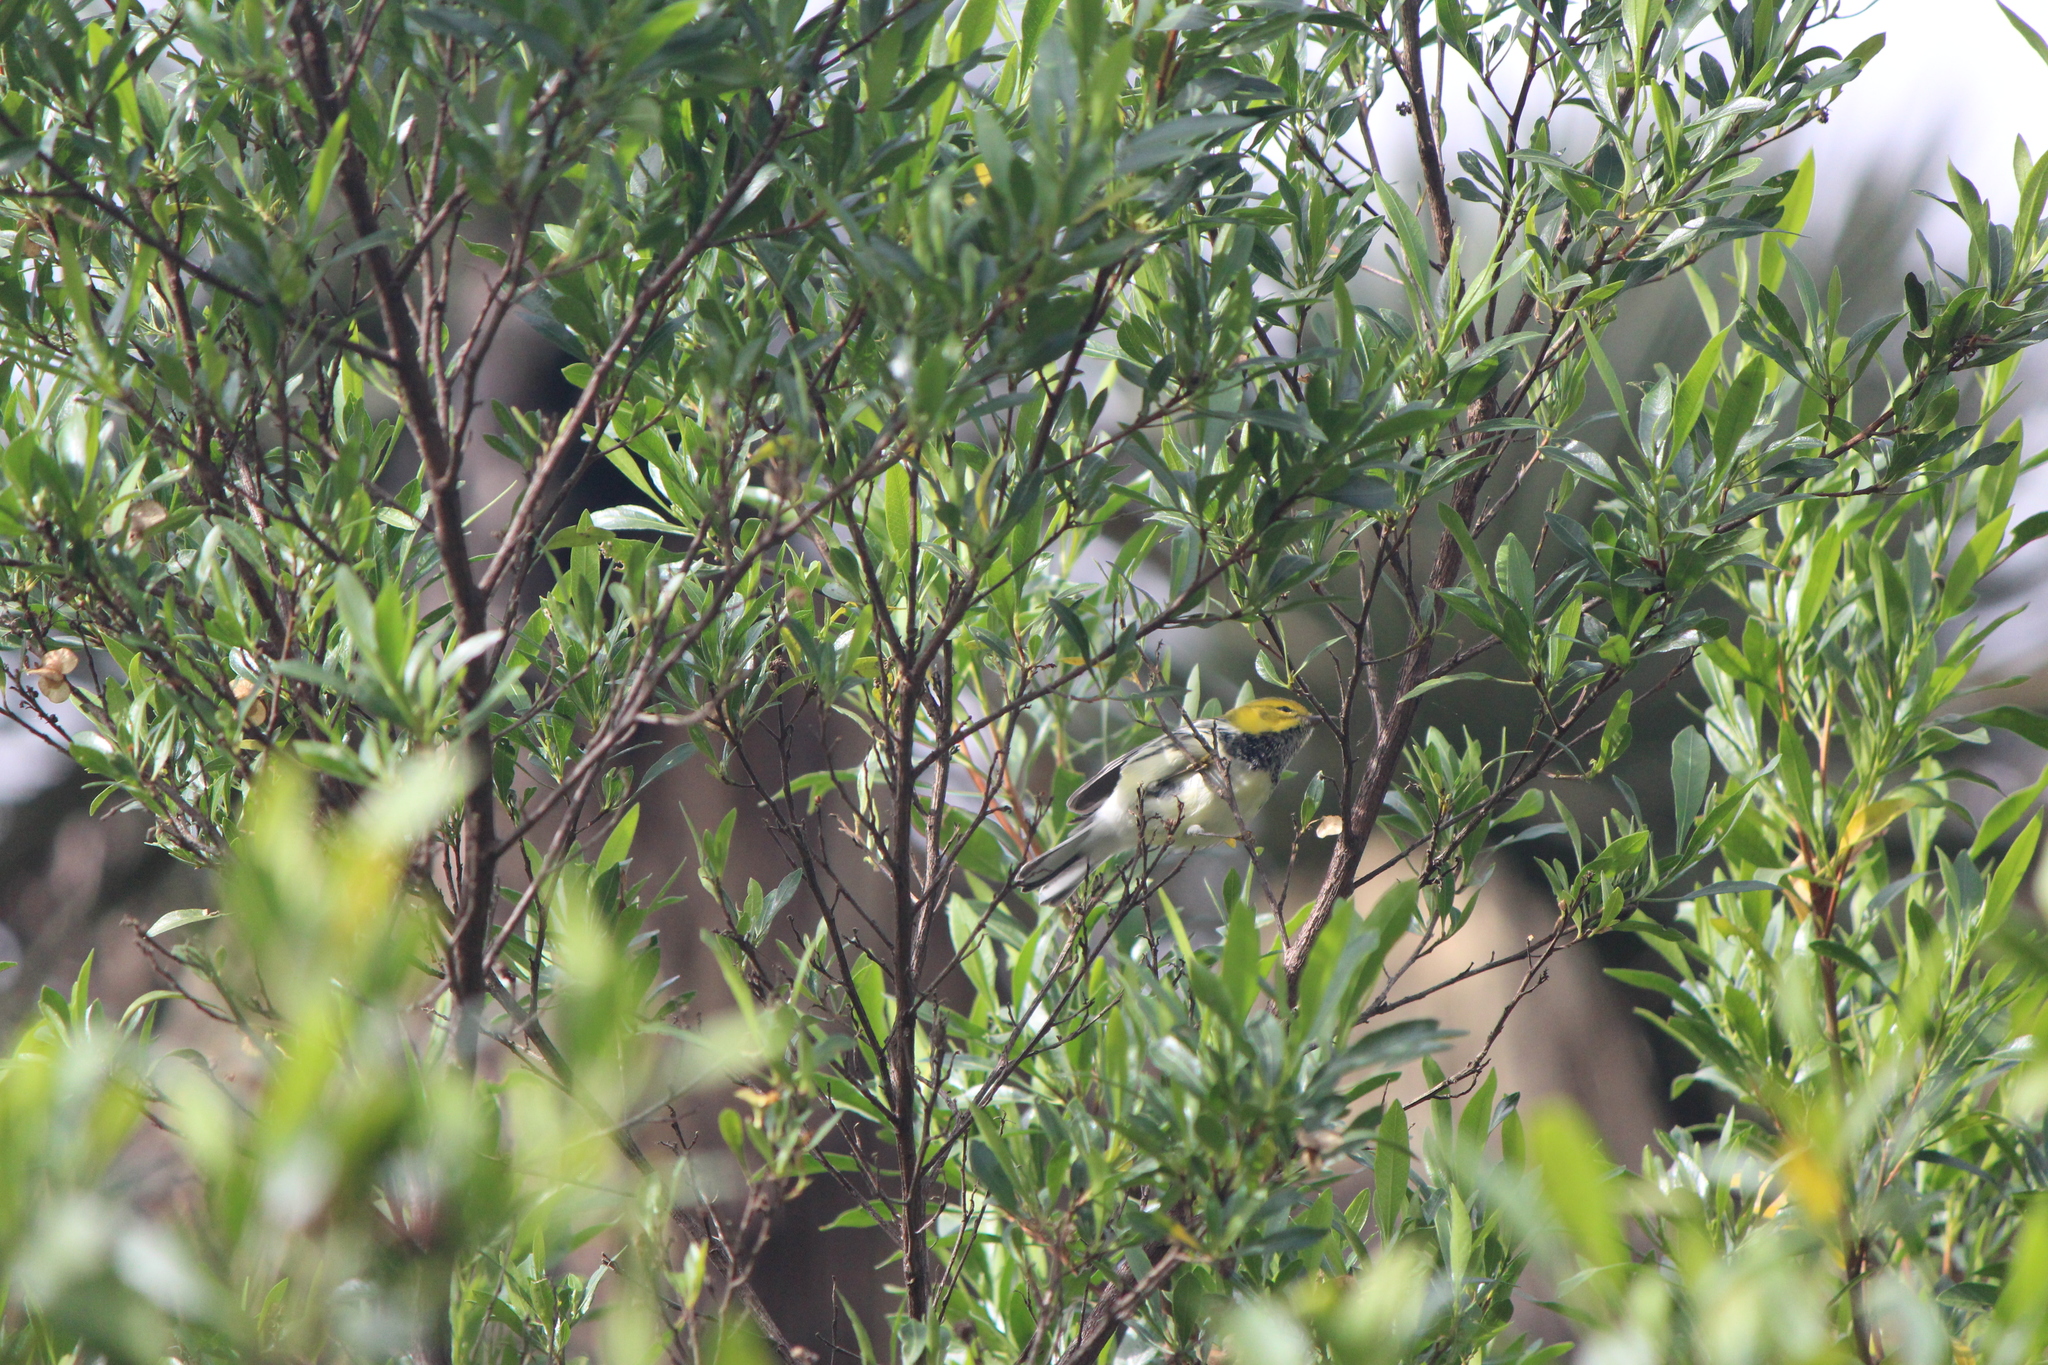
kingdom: Animalia
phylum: Chordata
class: Aves
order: Passeriformes
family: Parulidae
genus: Setophaga
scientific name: Setophaga virens
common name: Black-throated green warbler
